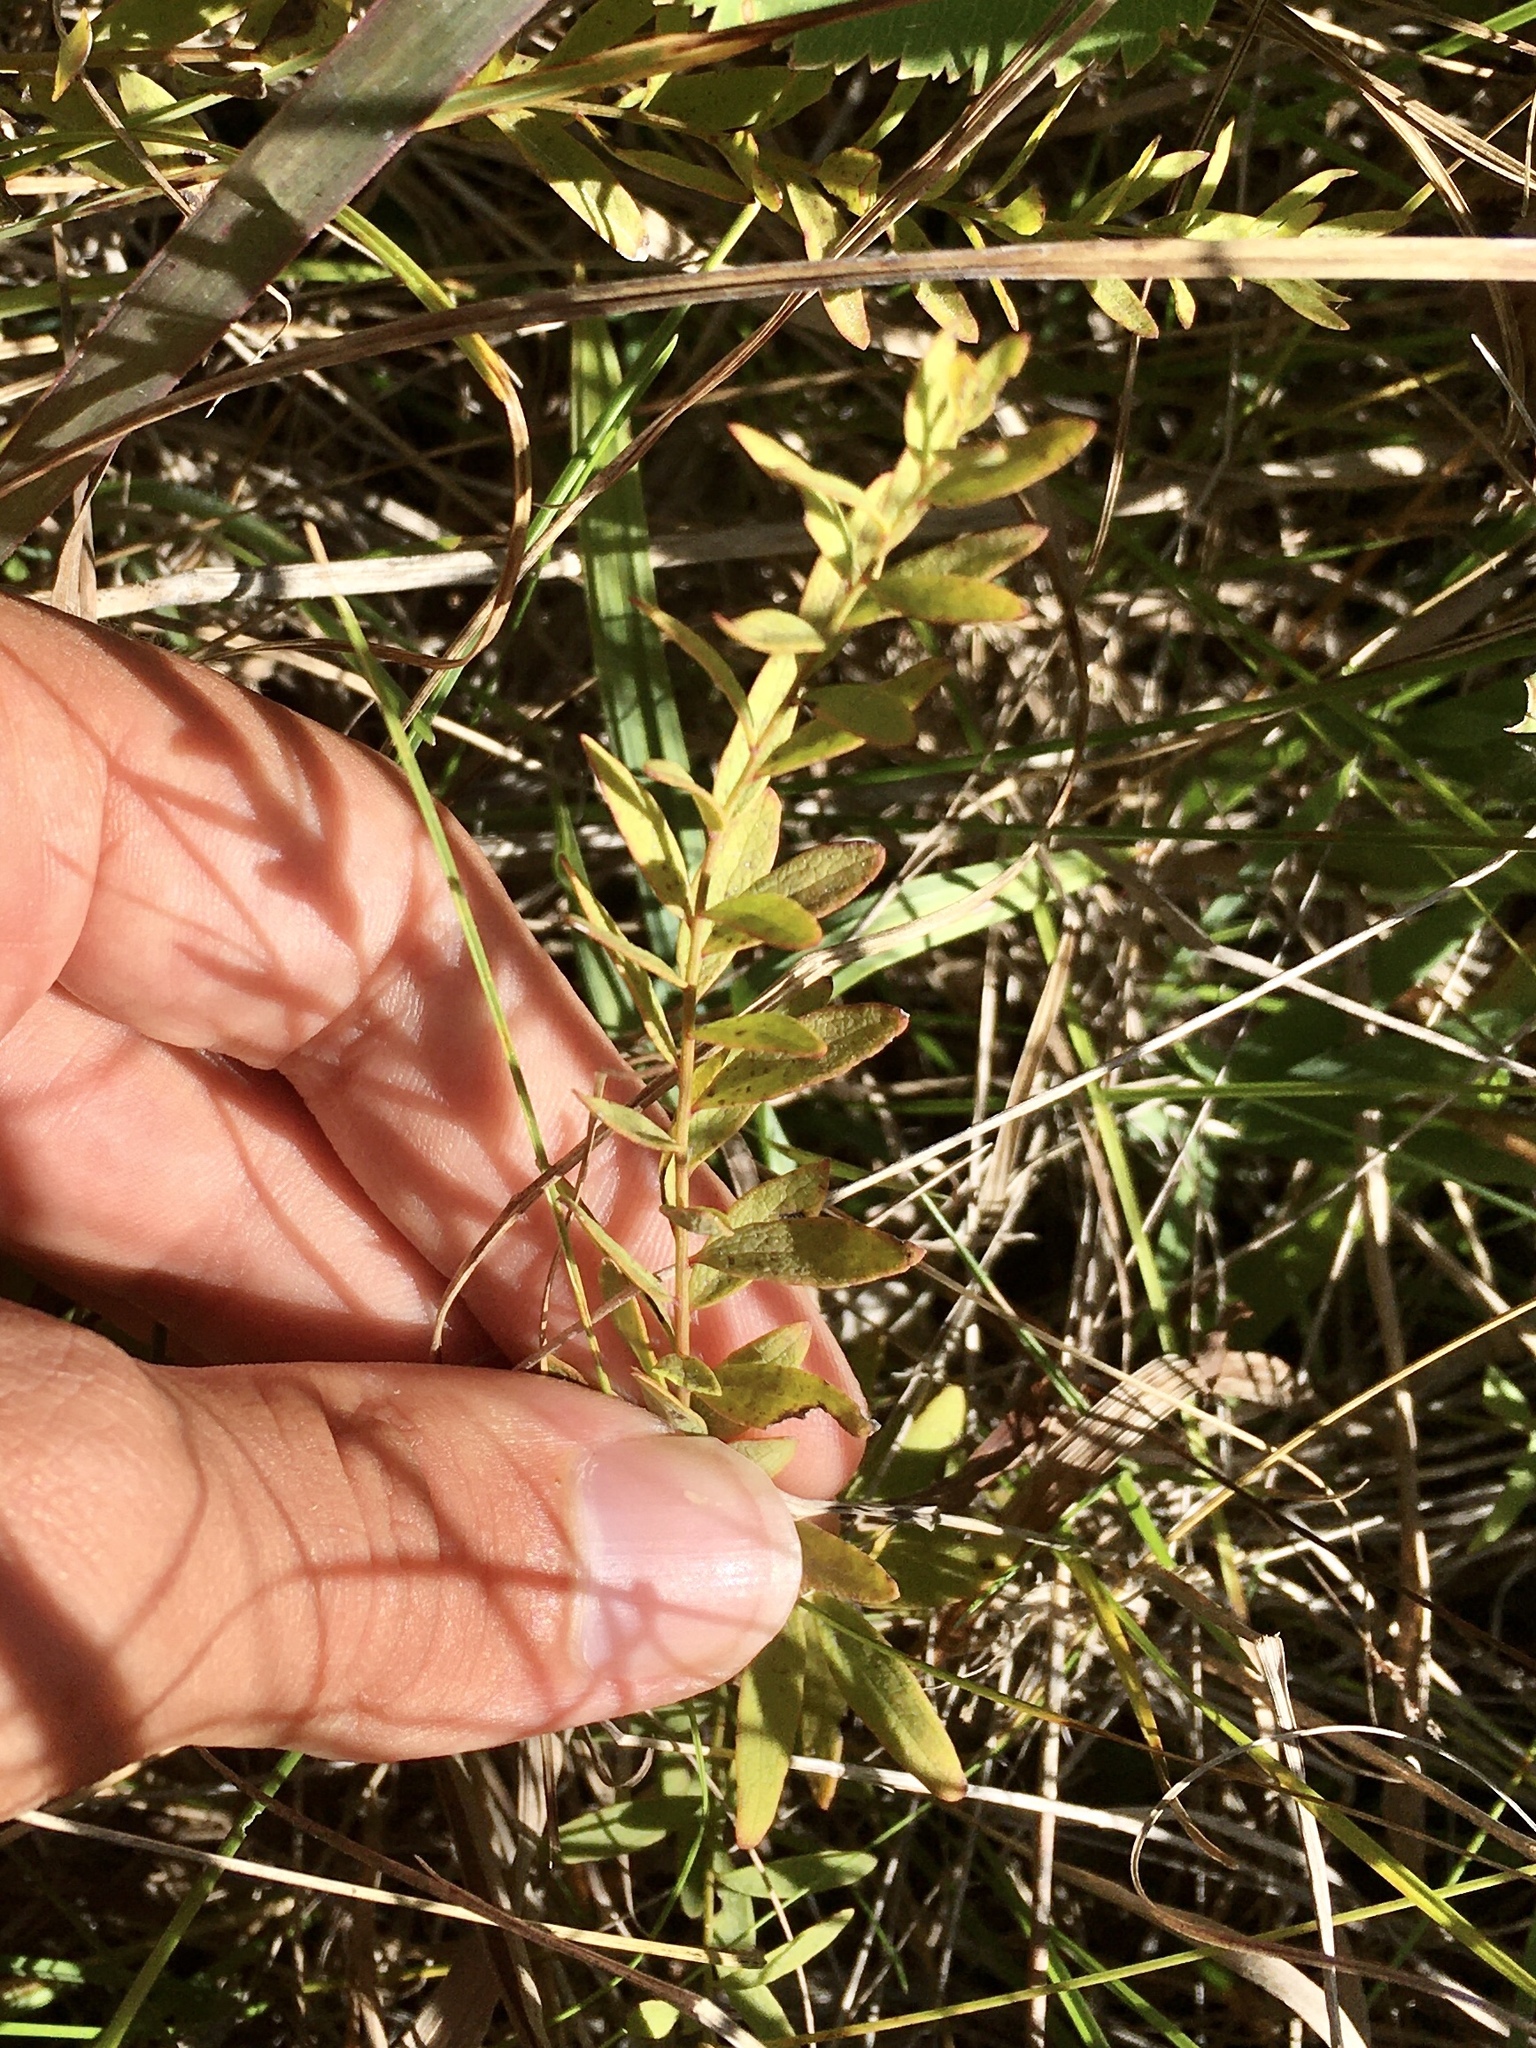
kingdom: Plantae
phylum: Tracheophyta
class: Magnoliopsida
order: Santalales
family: Comandraceae
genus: Comandra
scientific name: Comandra umbellata
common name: Bastard toadflax
